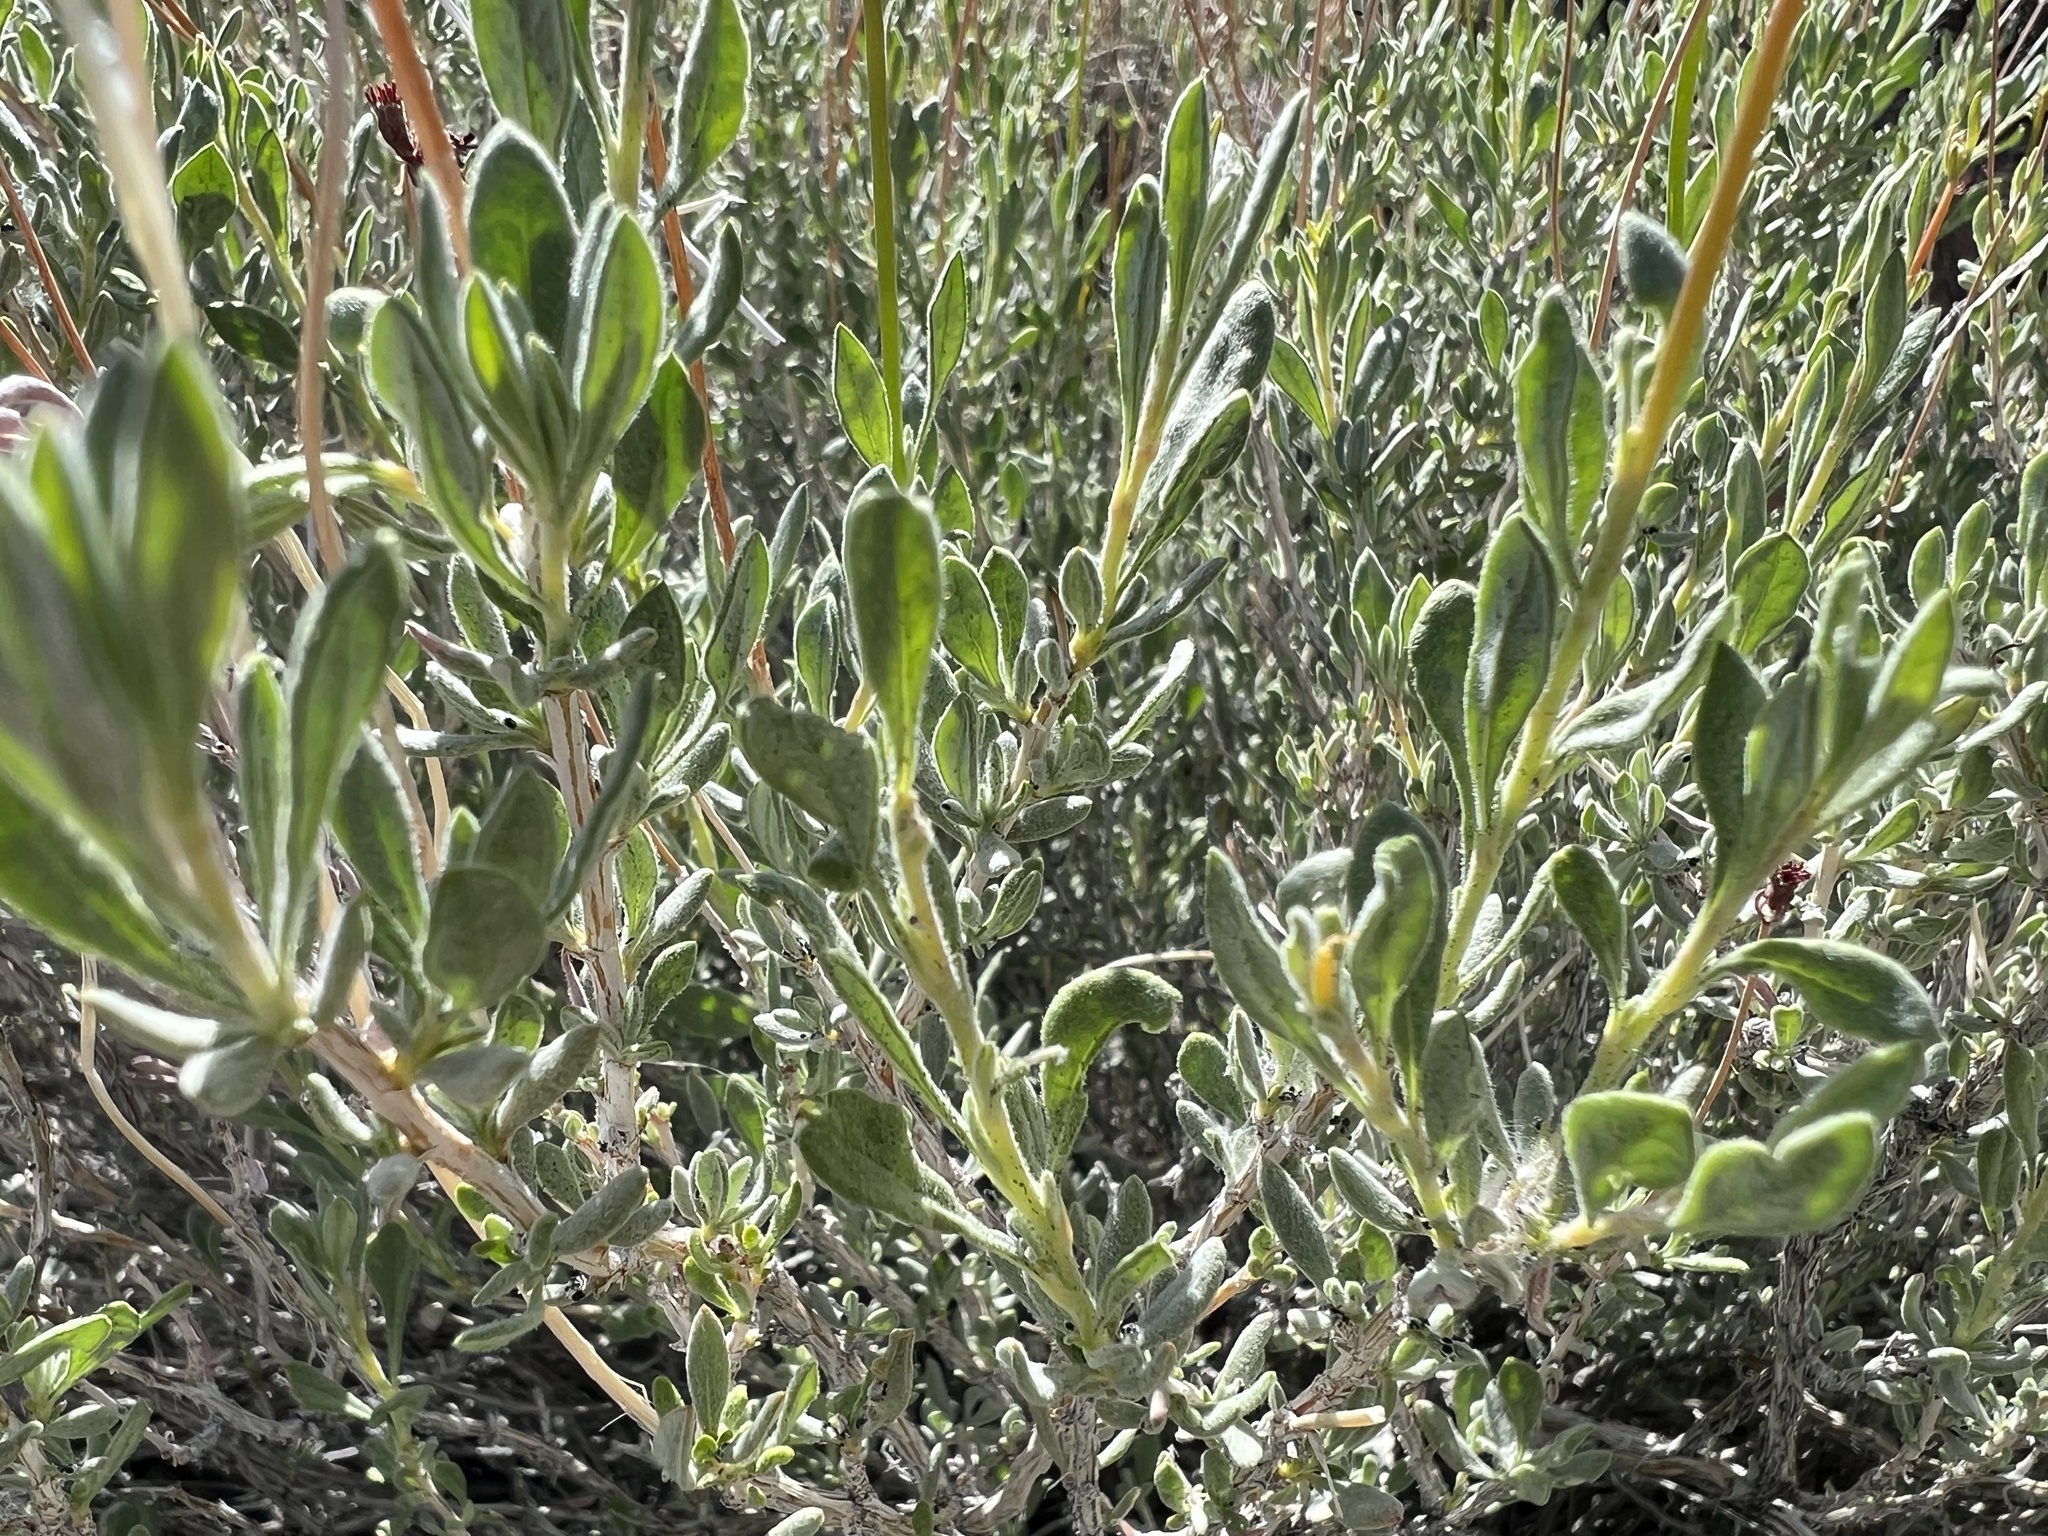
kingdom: Plantae
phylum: Tracheophyta
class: Magnoliopsida
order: Caryophyllales
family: Polygonaceae
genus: Eriogonum
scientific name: Eriogonum fasciculatum
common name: California wild buckwheat
